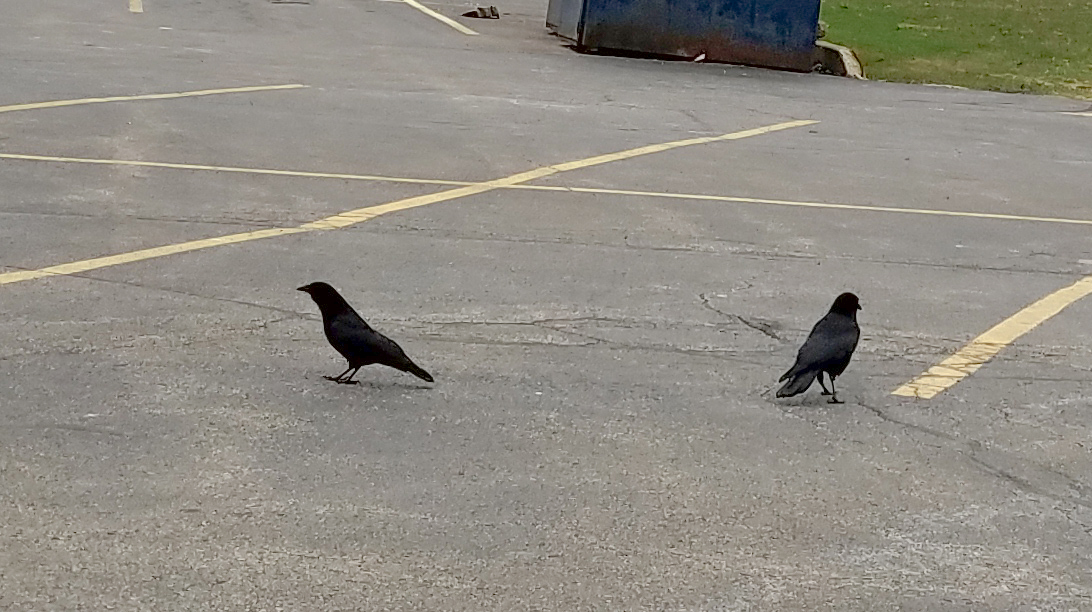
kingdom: Animalia
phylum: Chordata
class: Aves
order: Passeriformes
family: Corvidae
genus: Corvus
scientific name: Corvus brachyrhynchos
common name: American crow
